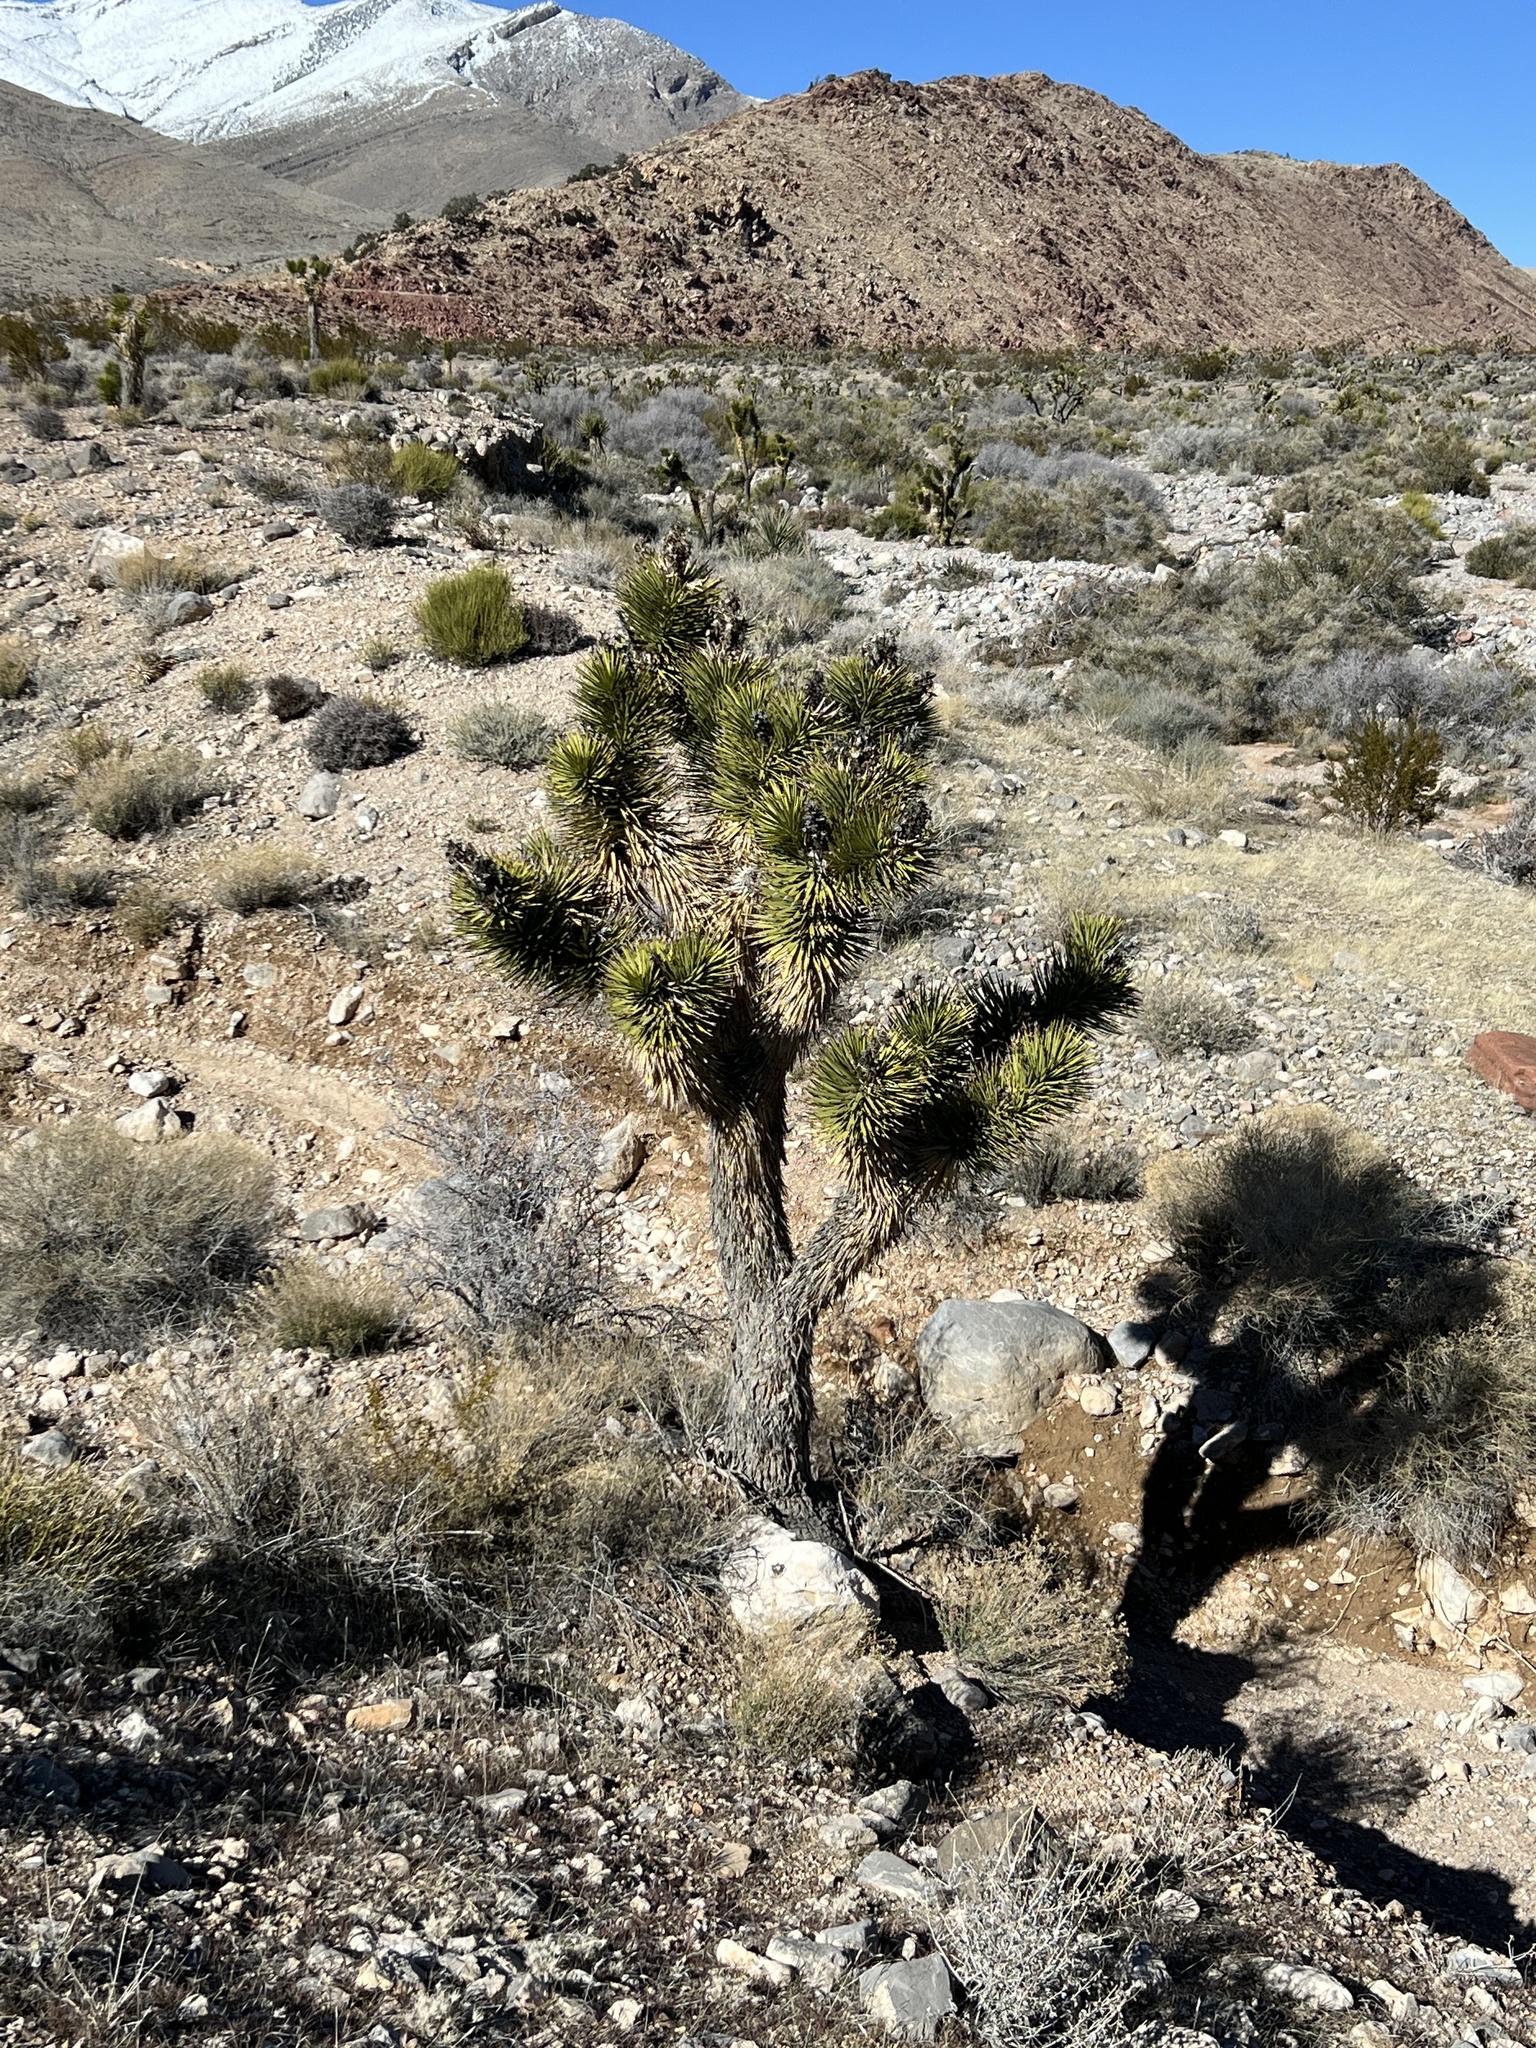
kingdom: Plantae
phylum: Tracheophyta
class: Liliopsida
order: Asparagales
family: Asparagaceae
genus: Yucca
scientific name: Yucca brevifolia
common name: Joshua tree
